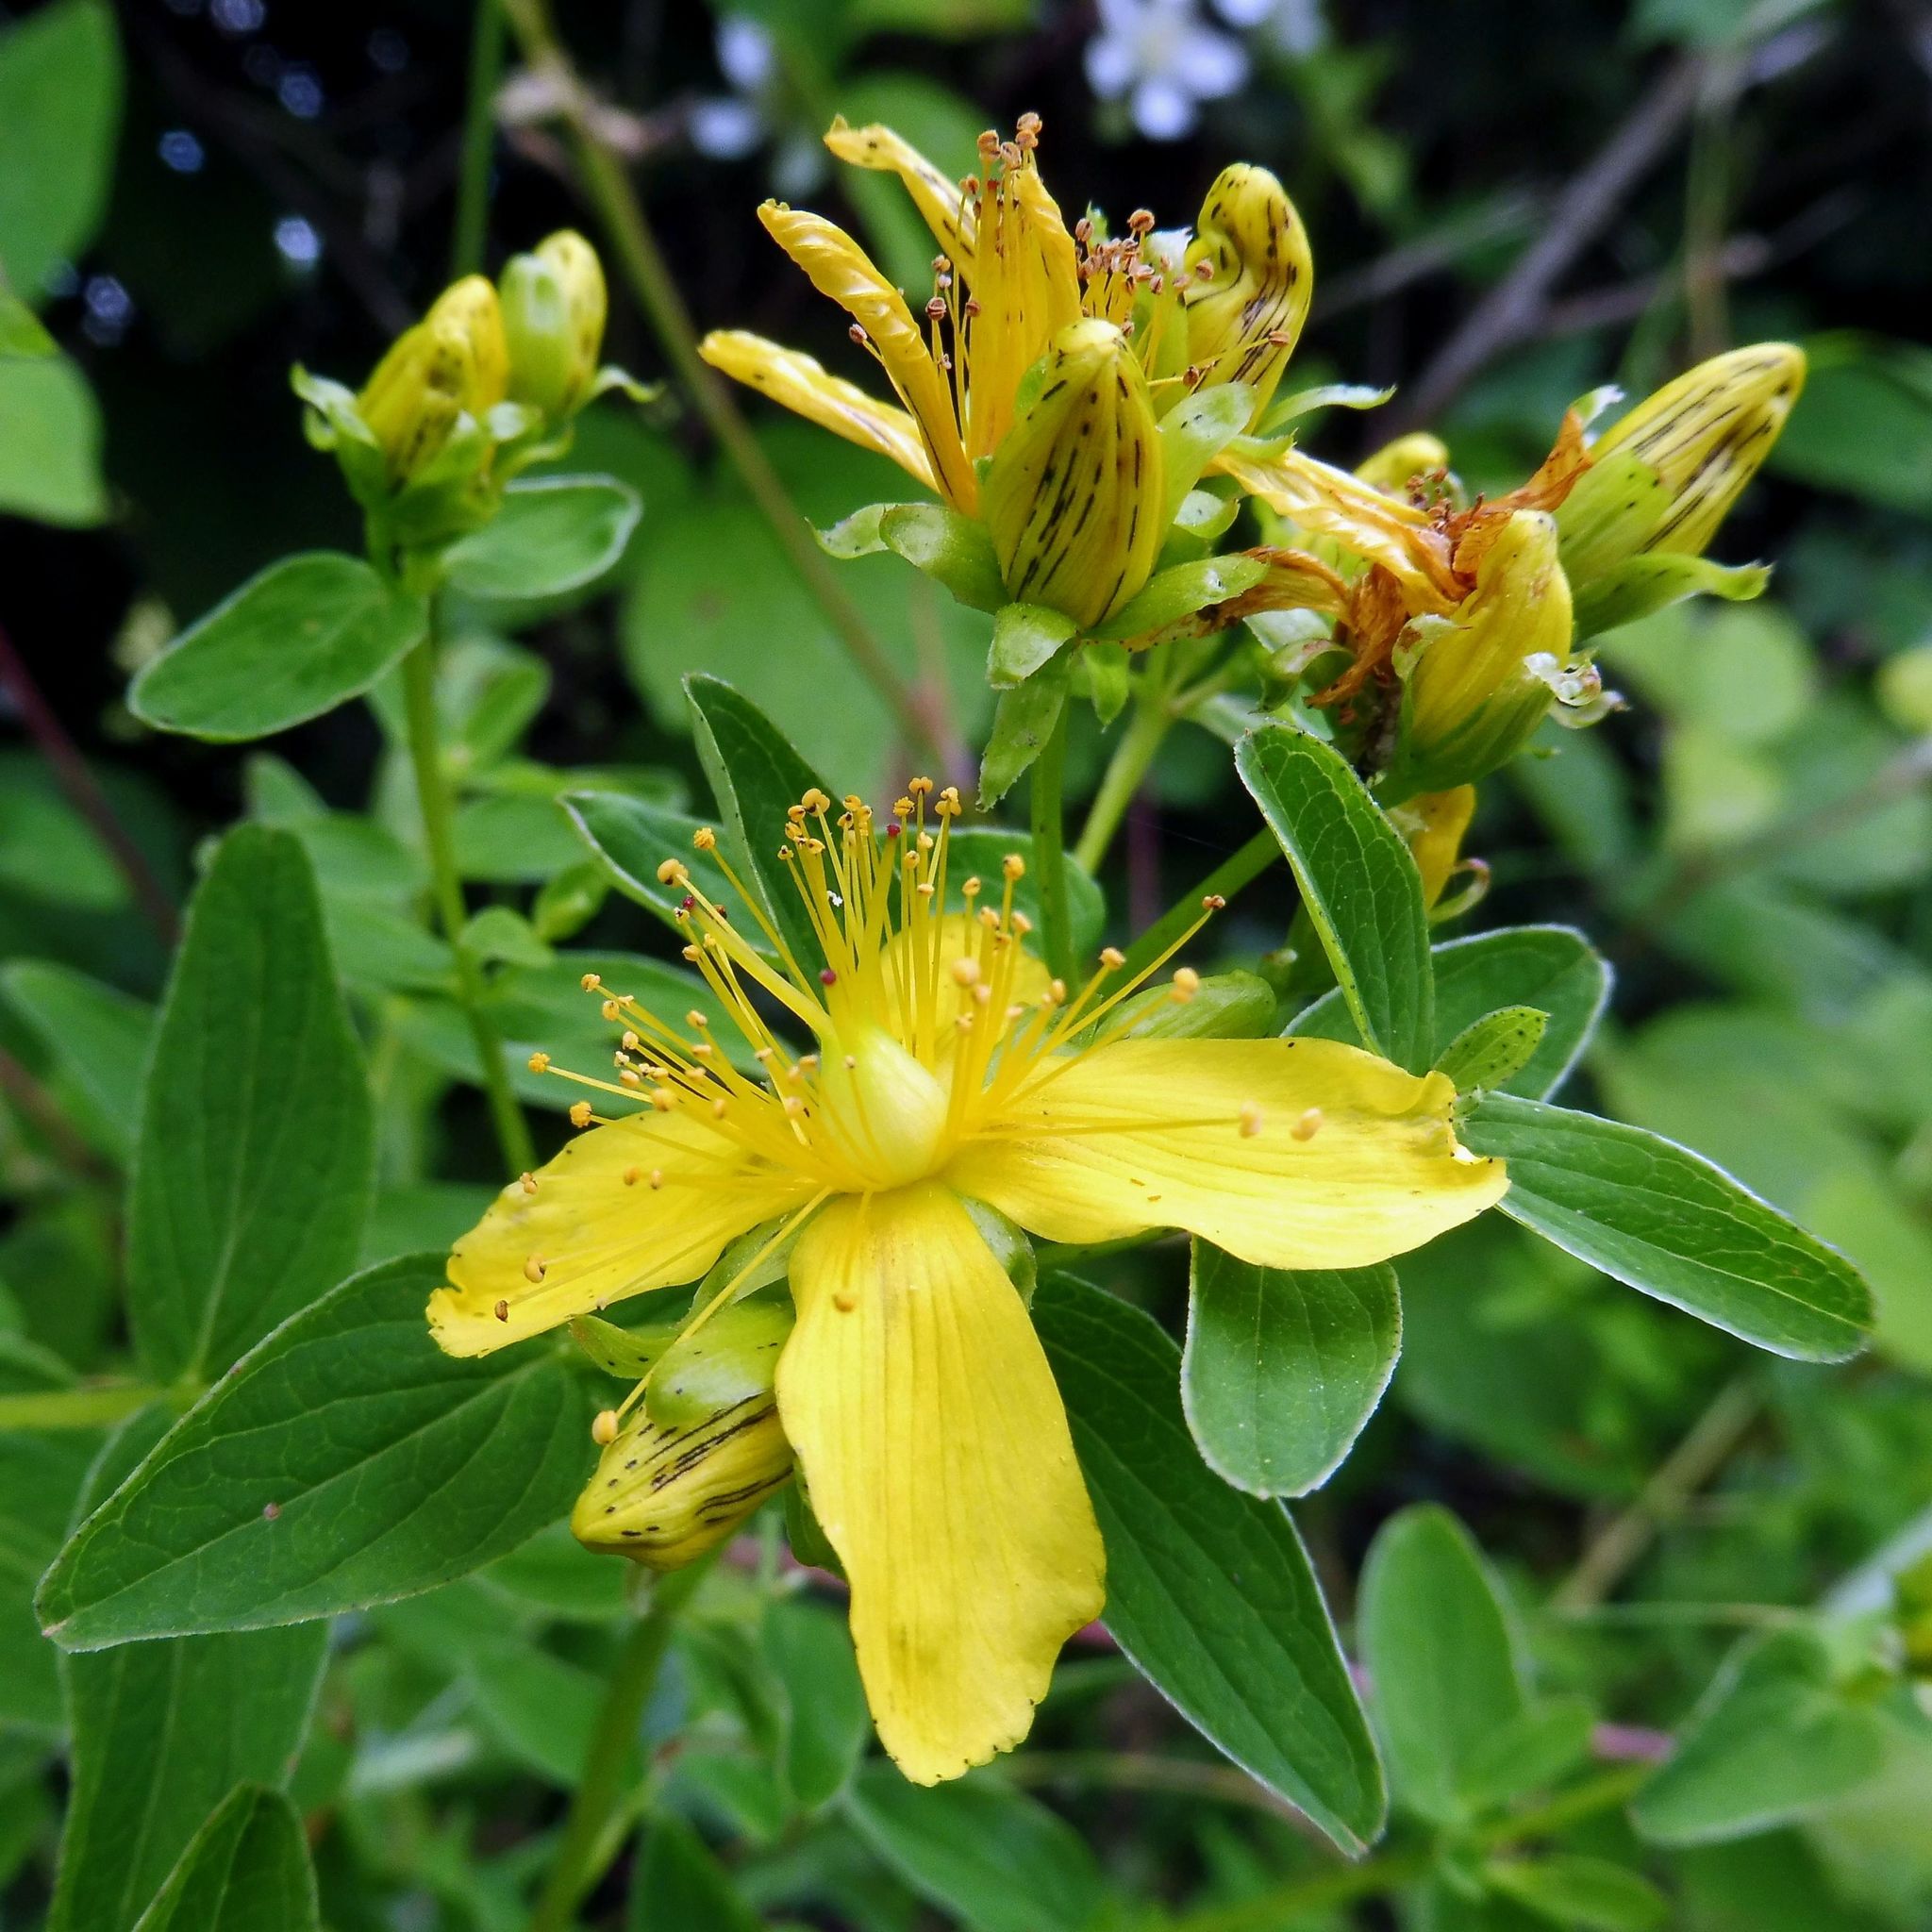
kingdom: Plantae
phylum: Tracheophyta
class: Magnoliopsida
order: Malpighiales
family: Hypericaceae
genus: Hypericum
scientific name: Hypericum dubium
